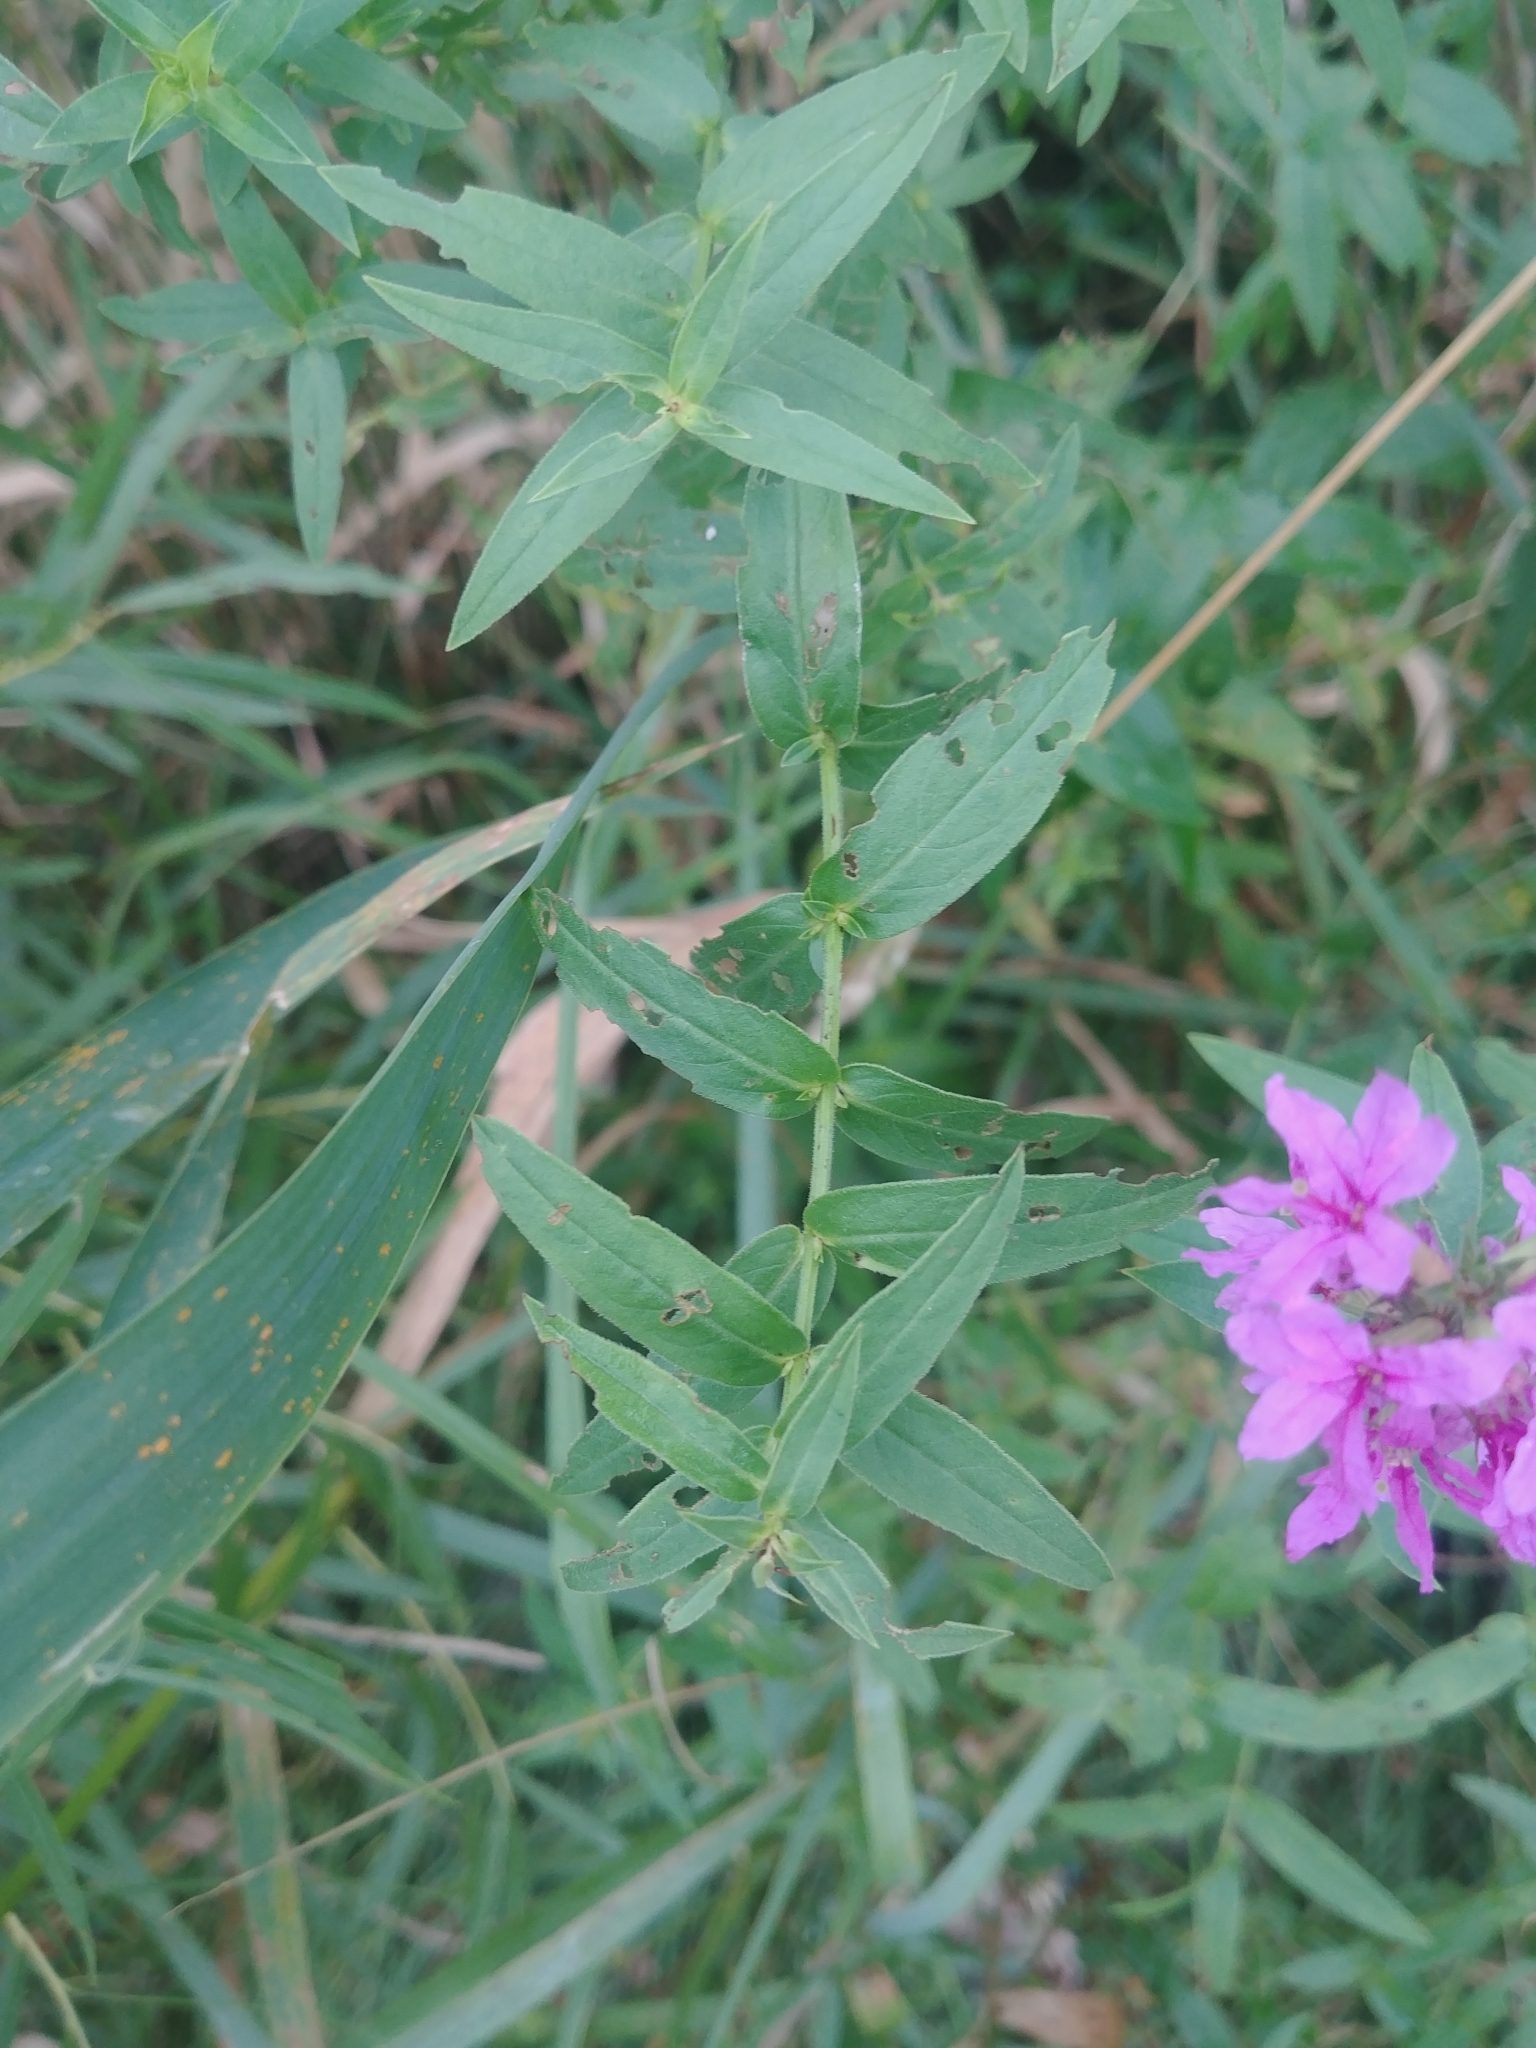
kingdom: Plantae
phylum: Tracheophyta
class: Magnoliopsida
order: Myrtales
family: Lythraceae
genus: Lythrum
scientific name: Lythrum salicaria
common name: Purple loosestrife
